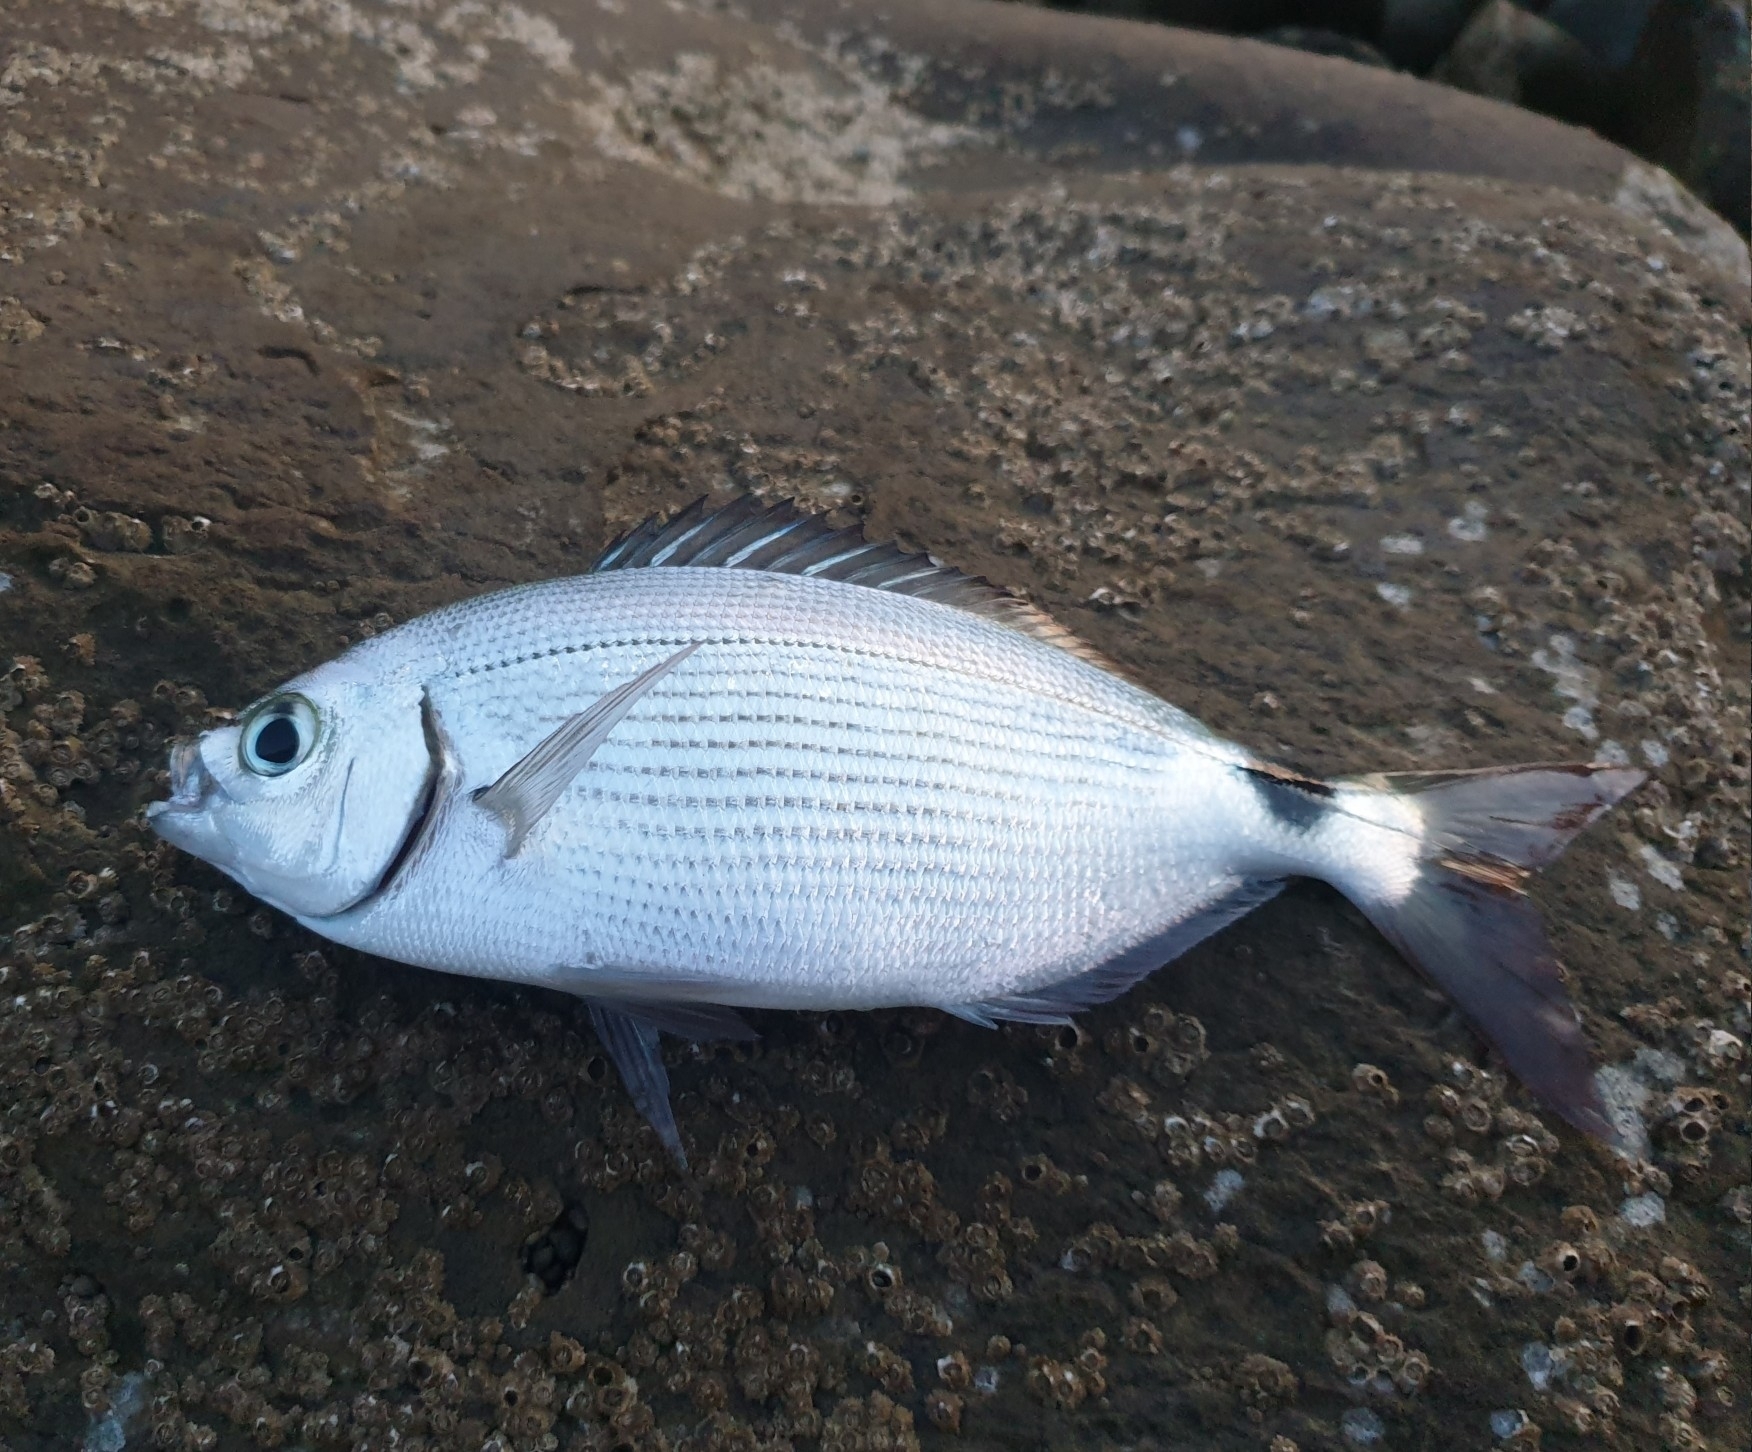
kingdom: Animalia
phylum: Chordata
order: Perciformes
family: Sparidae
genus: Oblada
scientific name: Oblada melanura
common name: Saddled seabream
